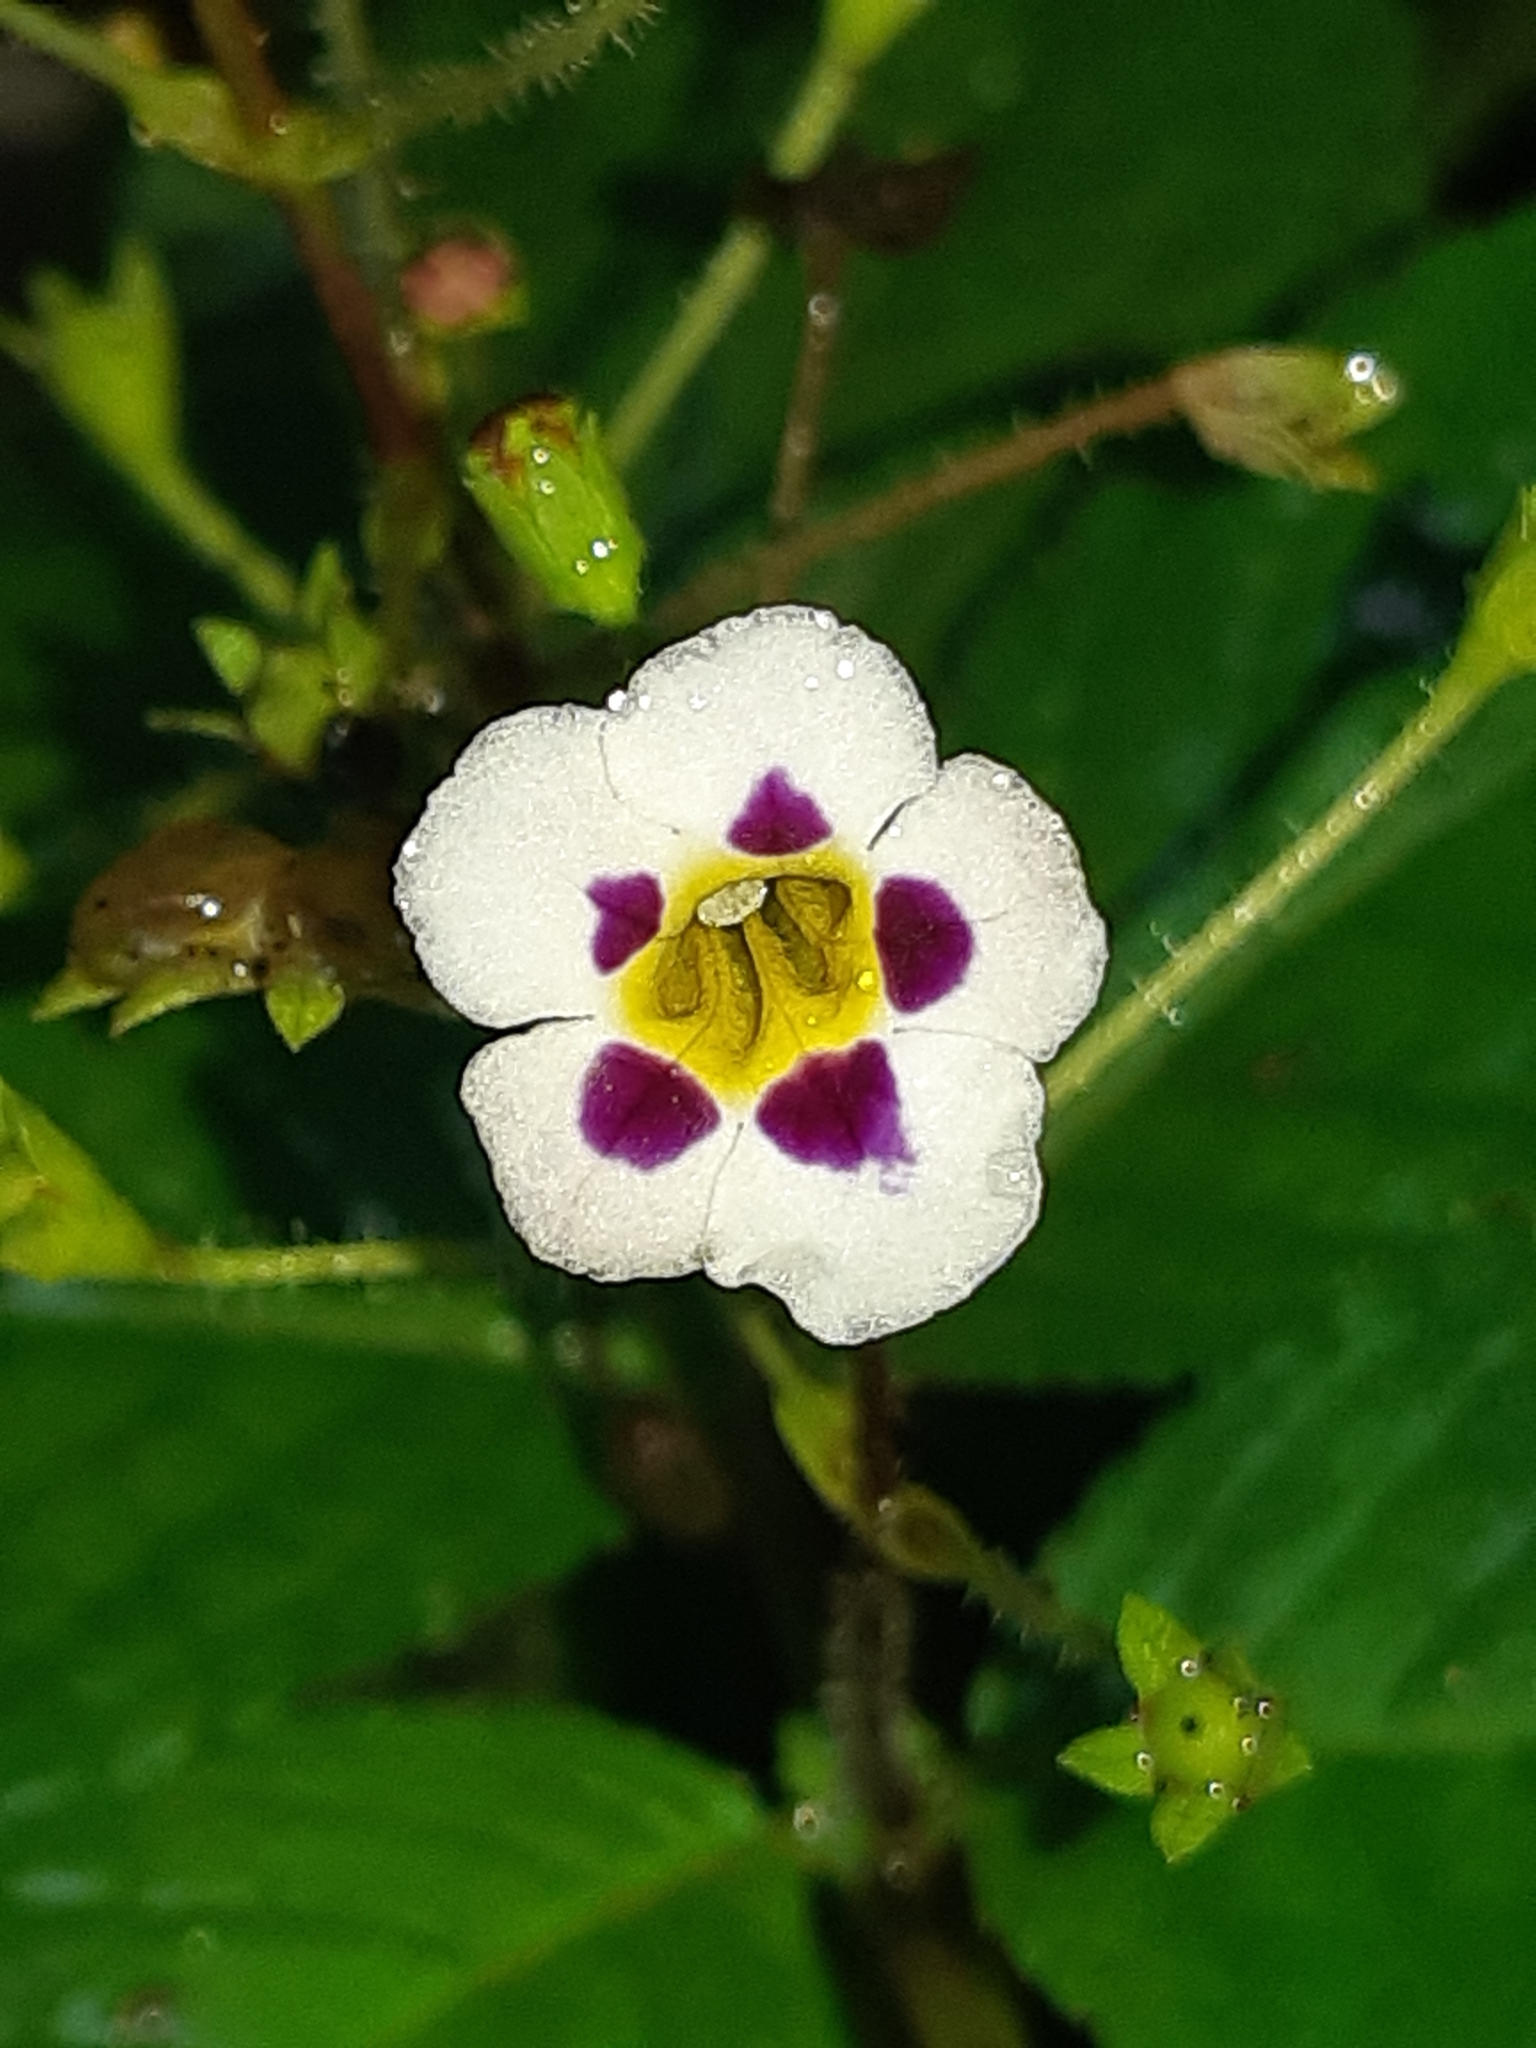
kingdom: Plantae
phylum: Tracheophyta
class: Magnoliopsida
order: Lamiales
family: Gesneriaceae
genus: Diastema
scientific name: Diastema racemiferum
